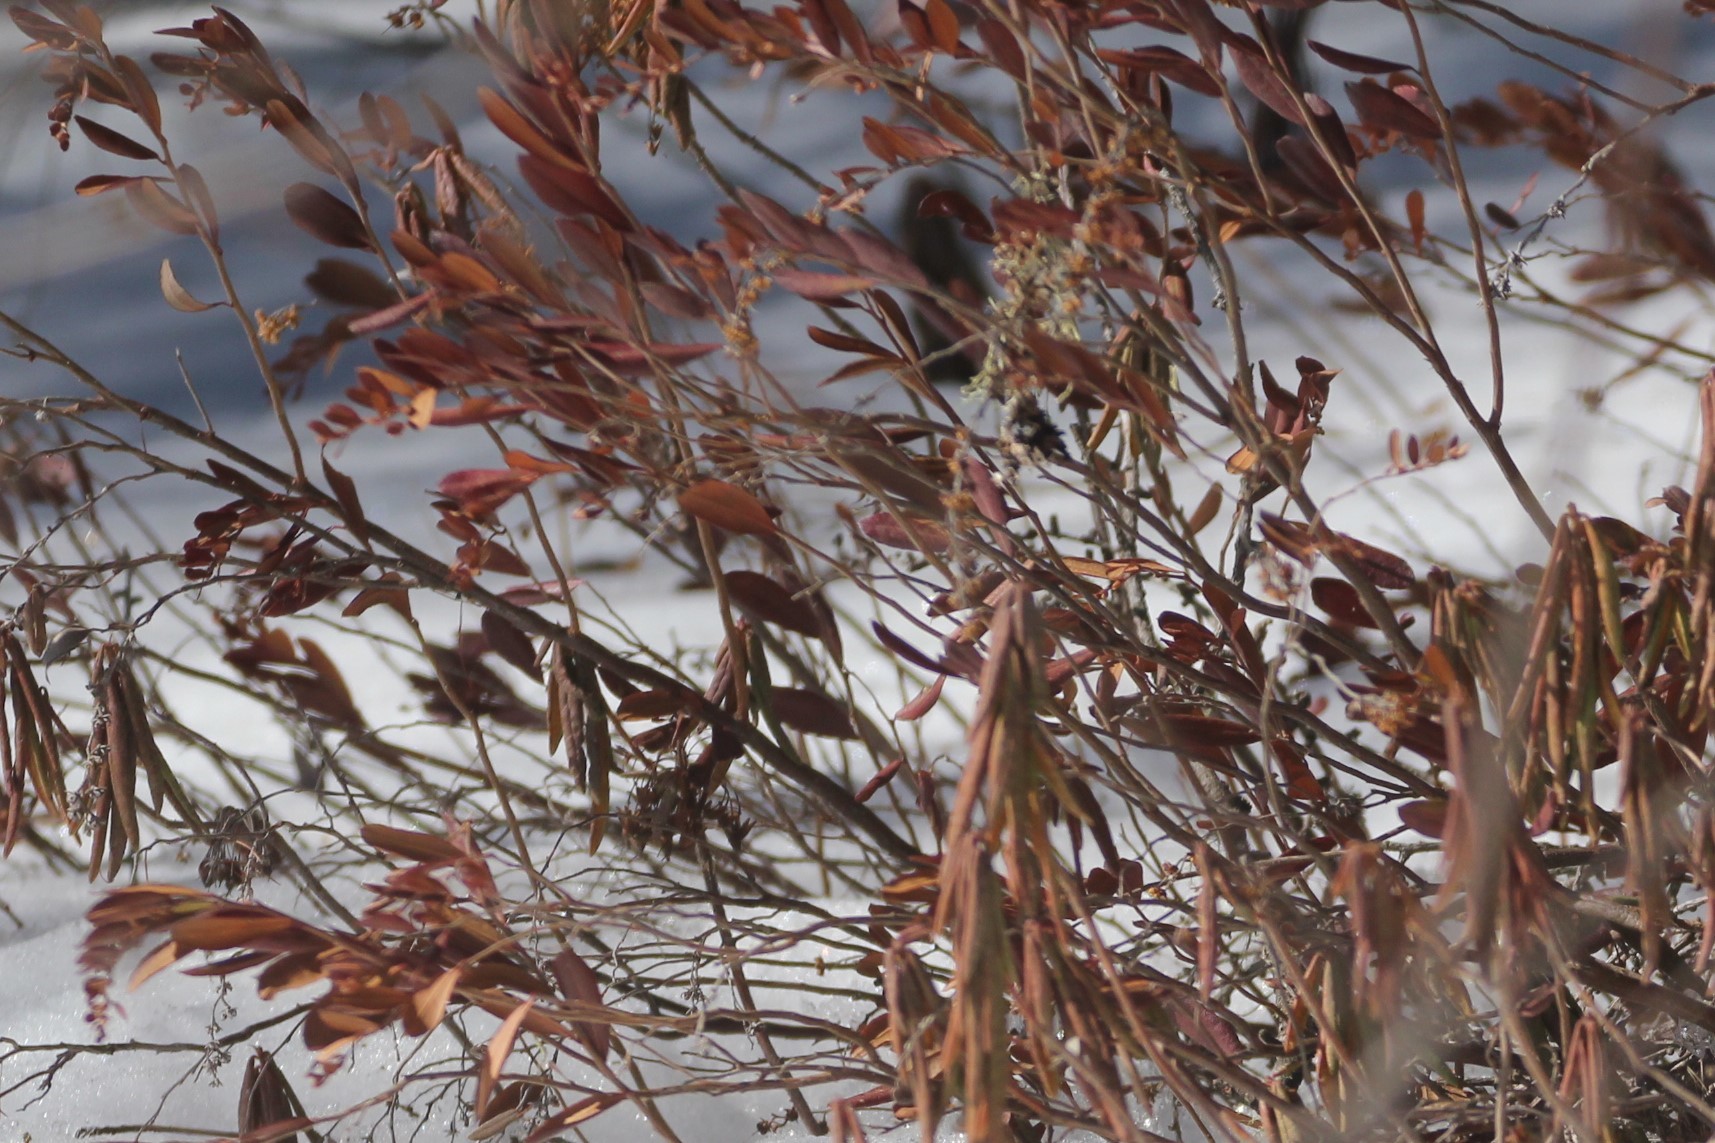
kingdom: Plantae
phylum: Tracheophyta
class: Magnoliopsida
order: Ericales
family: Ericaceae
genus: Chamaedaphne
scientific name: Chamaedaphne calyculata
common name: Leatherleaf
